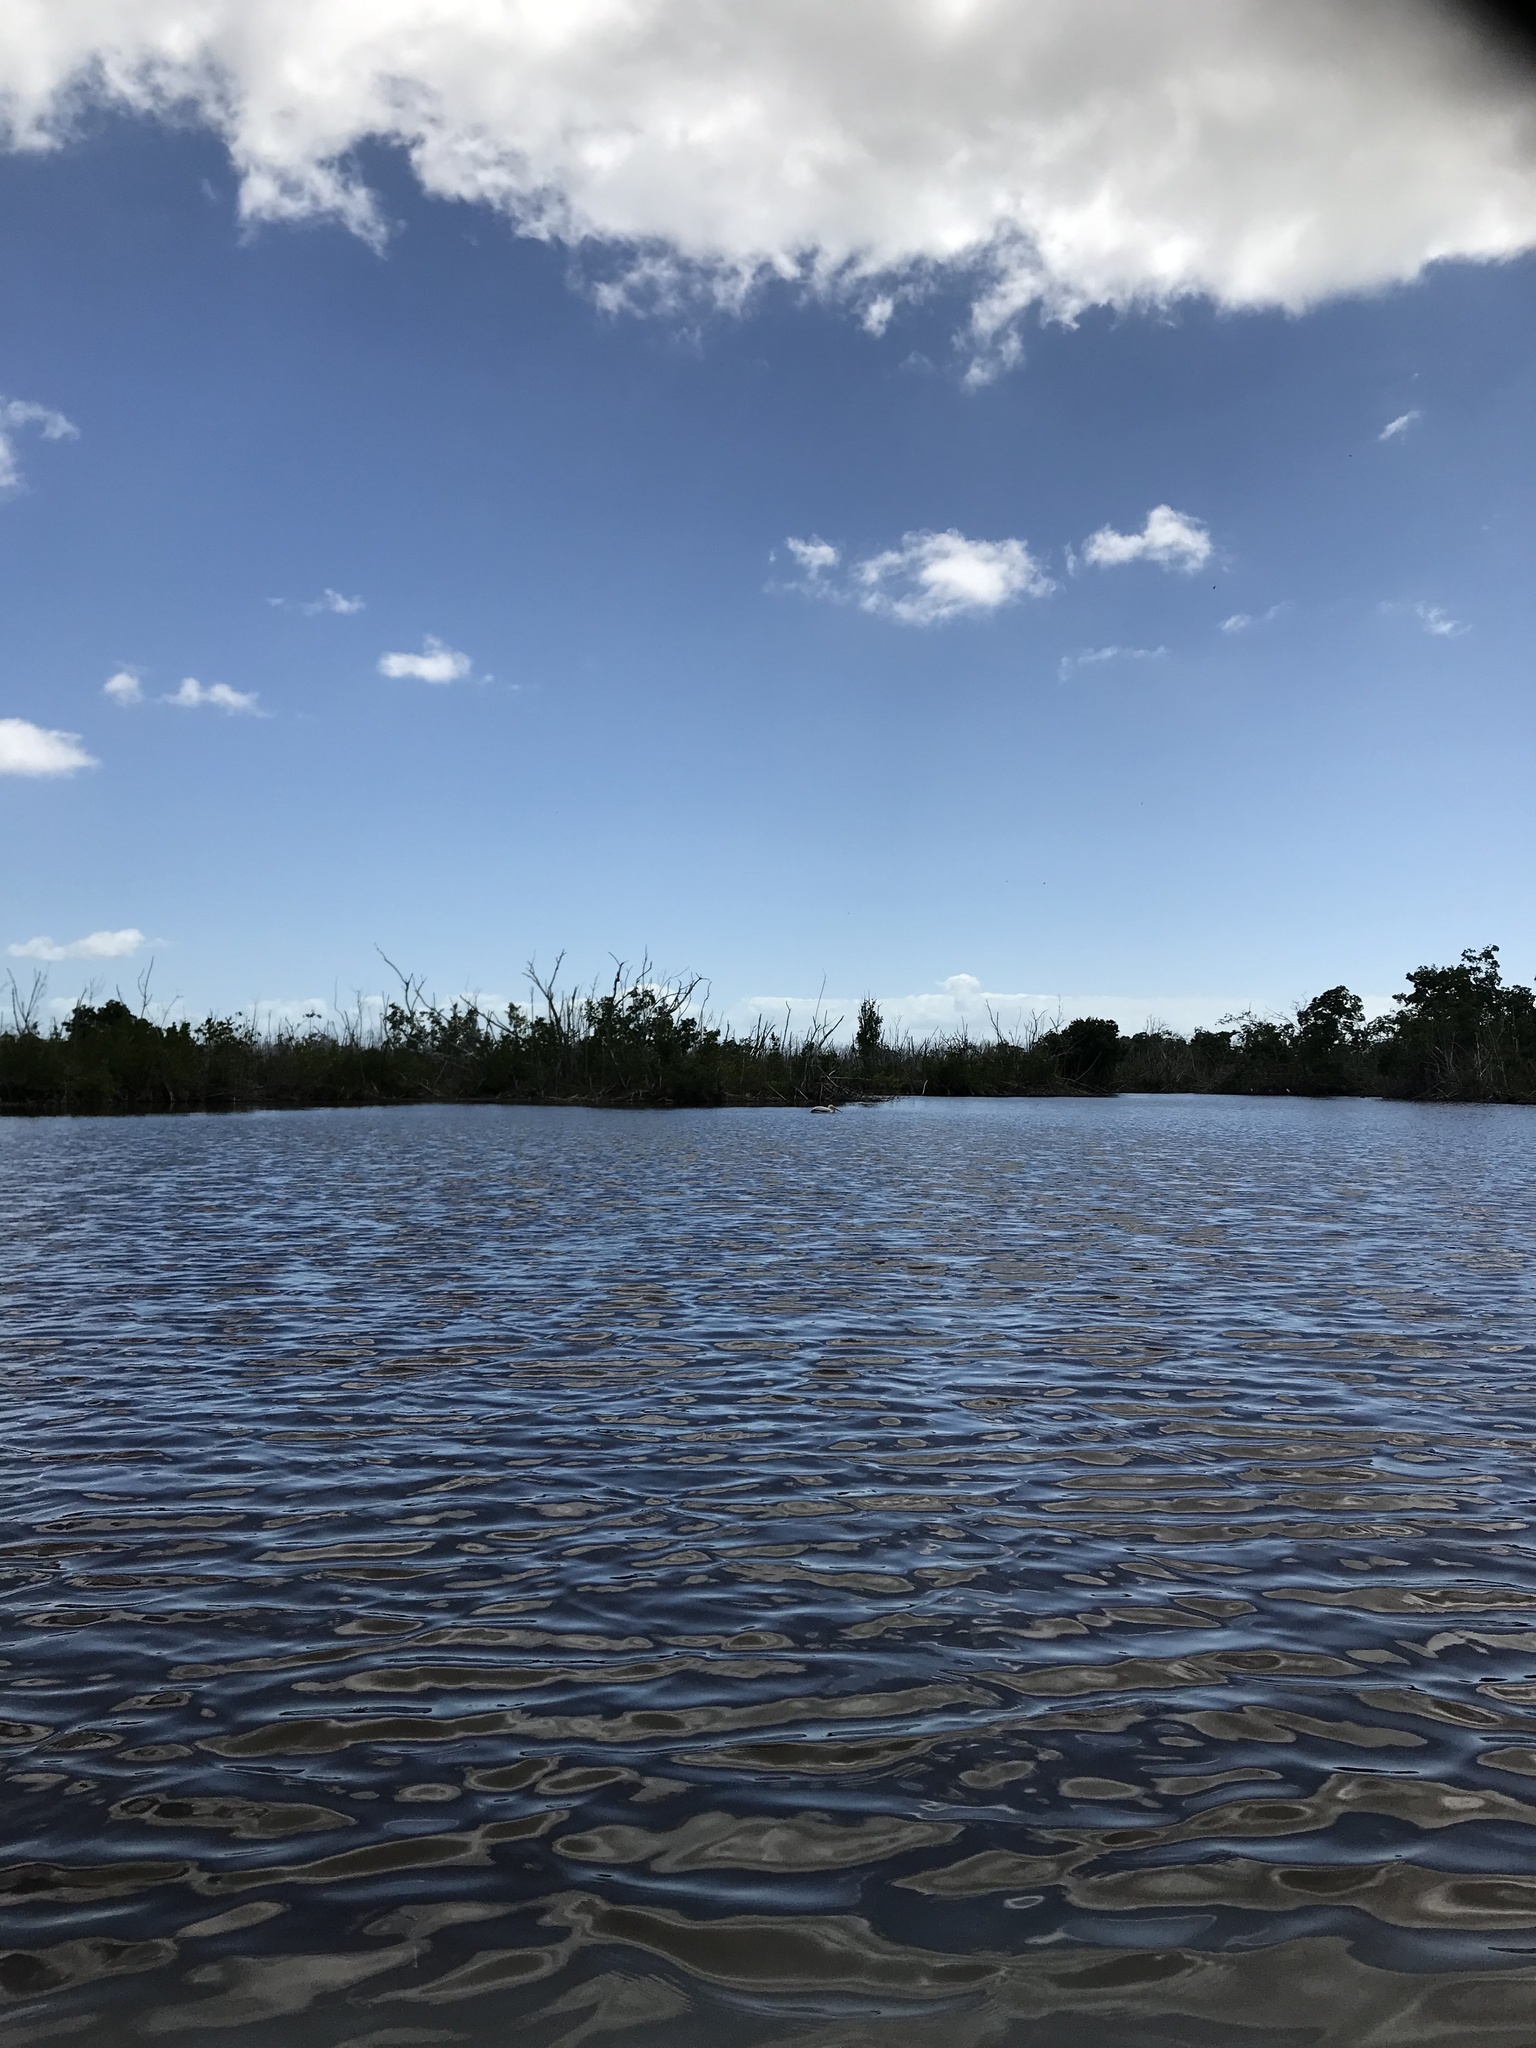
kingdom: Animalia
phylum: Chordata
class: Aves
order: Pelecaniformes
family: Pelecanidae
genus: Pelecanus
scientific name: Pelecanus erythrorhynchos
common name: American white pelican
